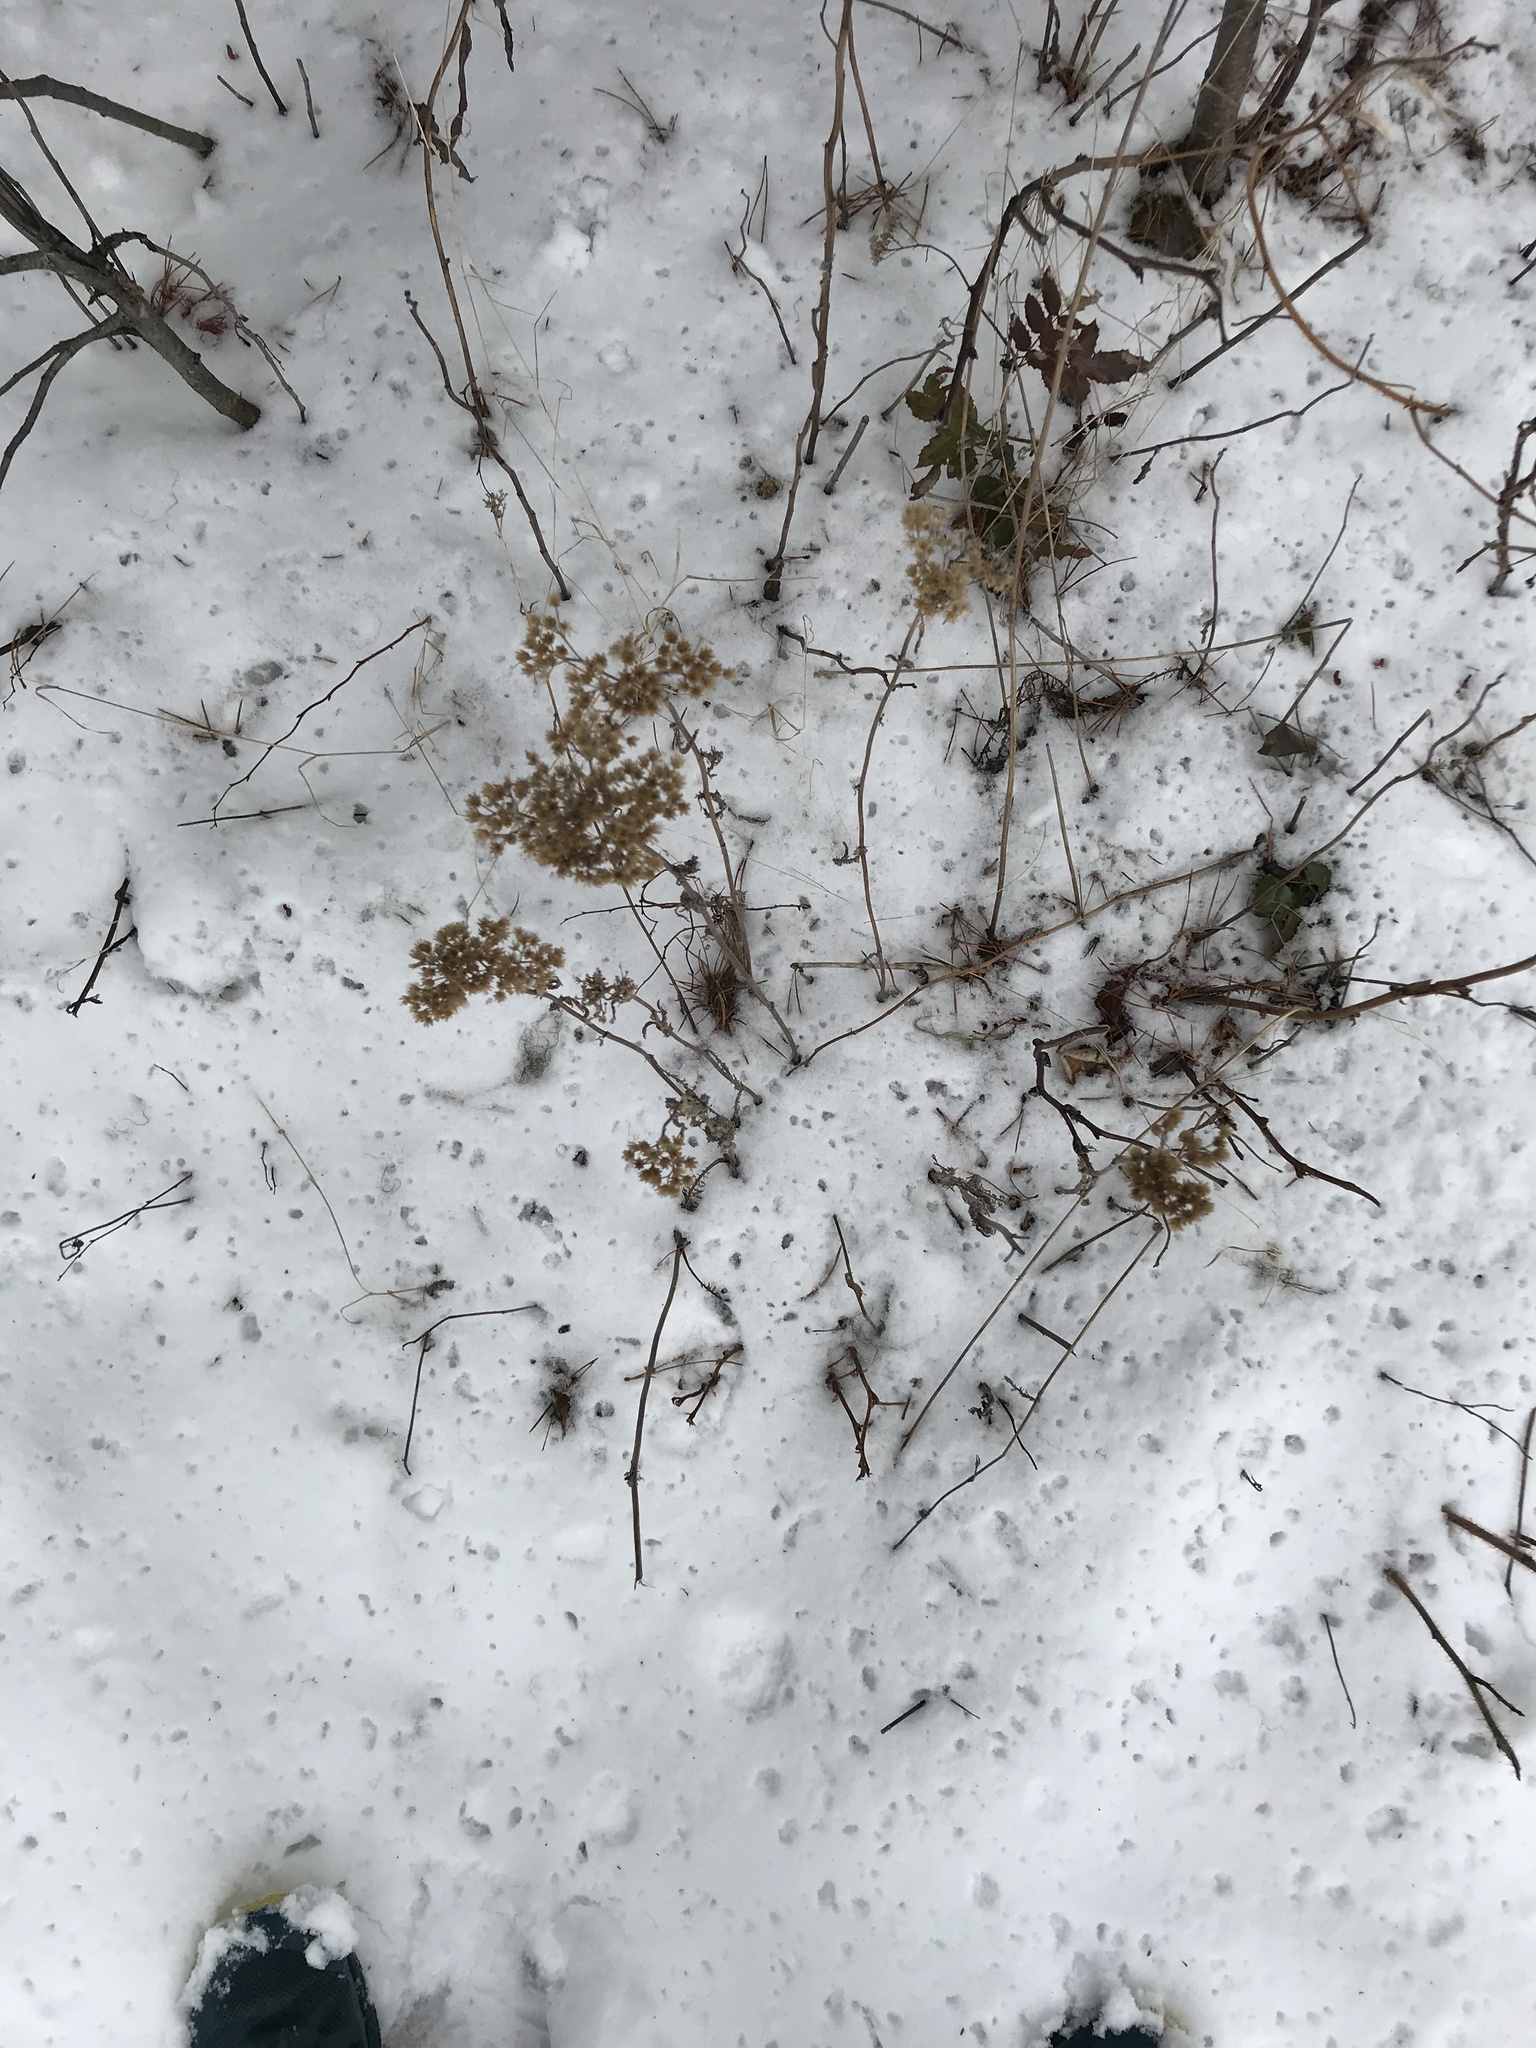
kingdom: Plantae
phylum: Tracheophyta
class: Magnoliopsida
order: Asterales
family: Asteraceae
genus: Anaphalis
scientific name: Anaphalis margaritacea
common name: Pearly everlasting
